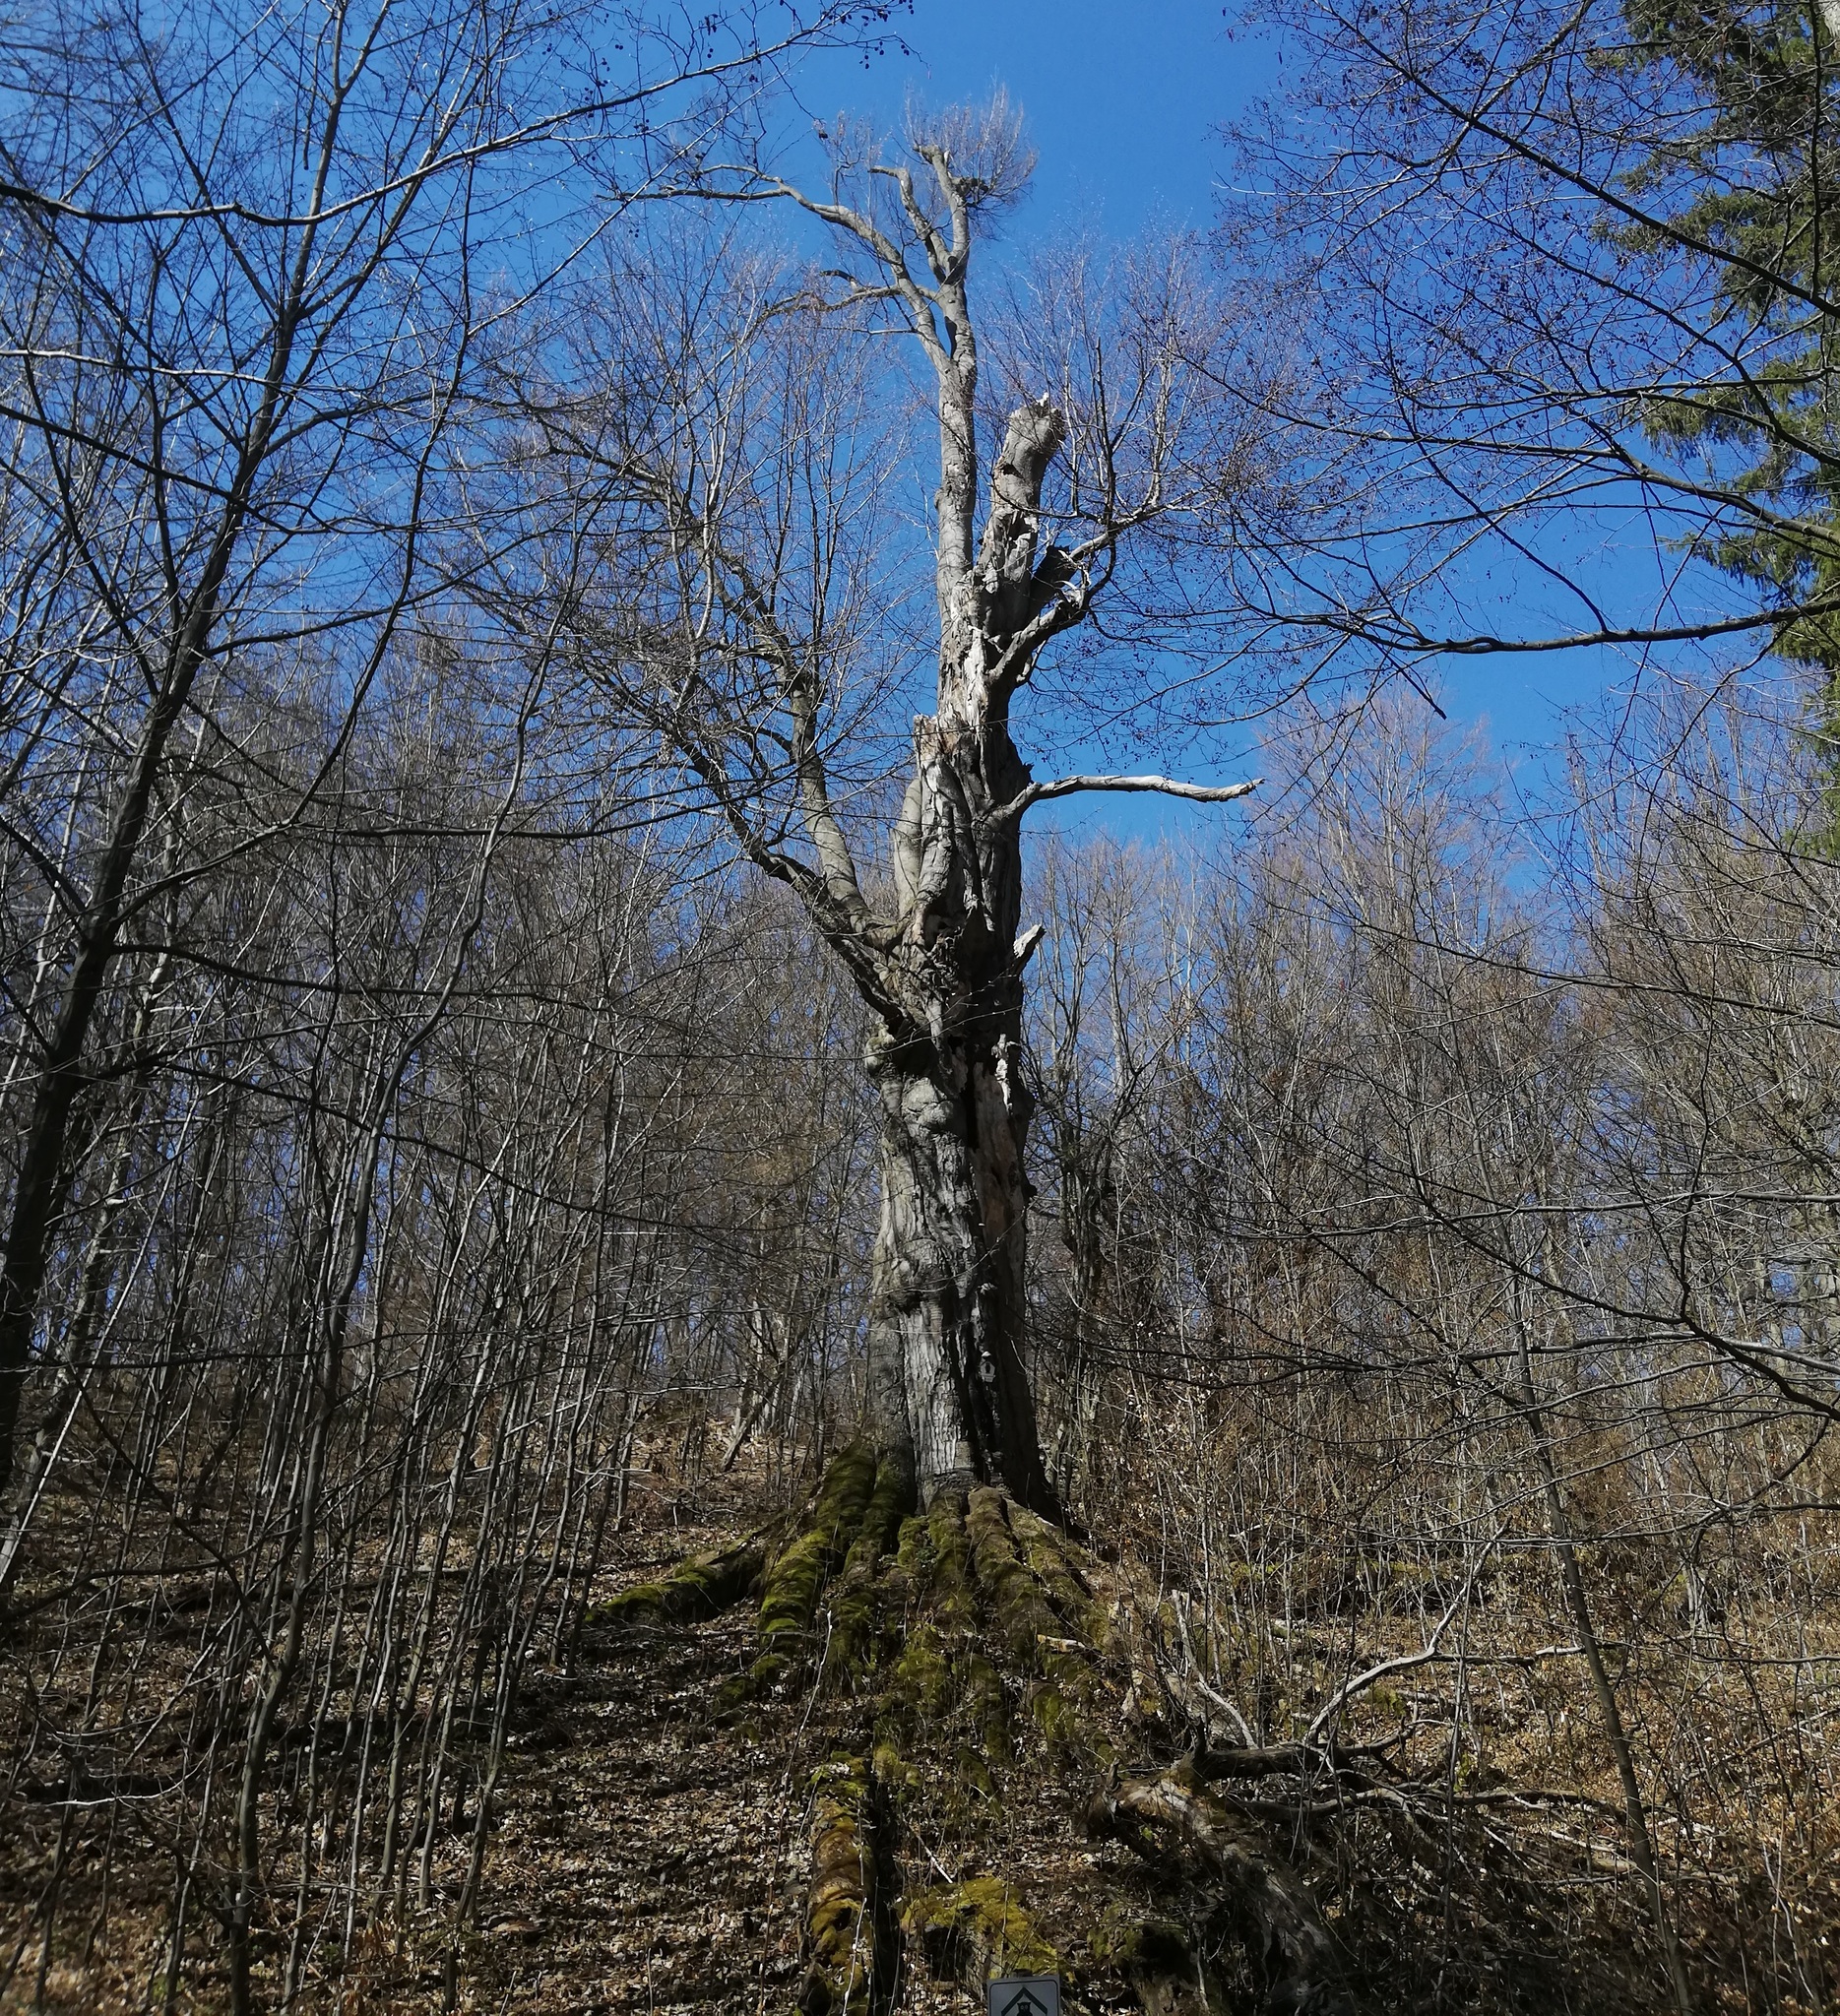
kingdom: Plantae
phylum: Tracheophyta
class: Magnoliopsida
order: Fagales
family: Fagaceae
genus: Fagus
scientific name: Fagus sylvatica
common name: Beech
